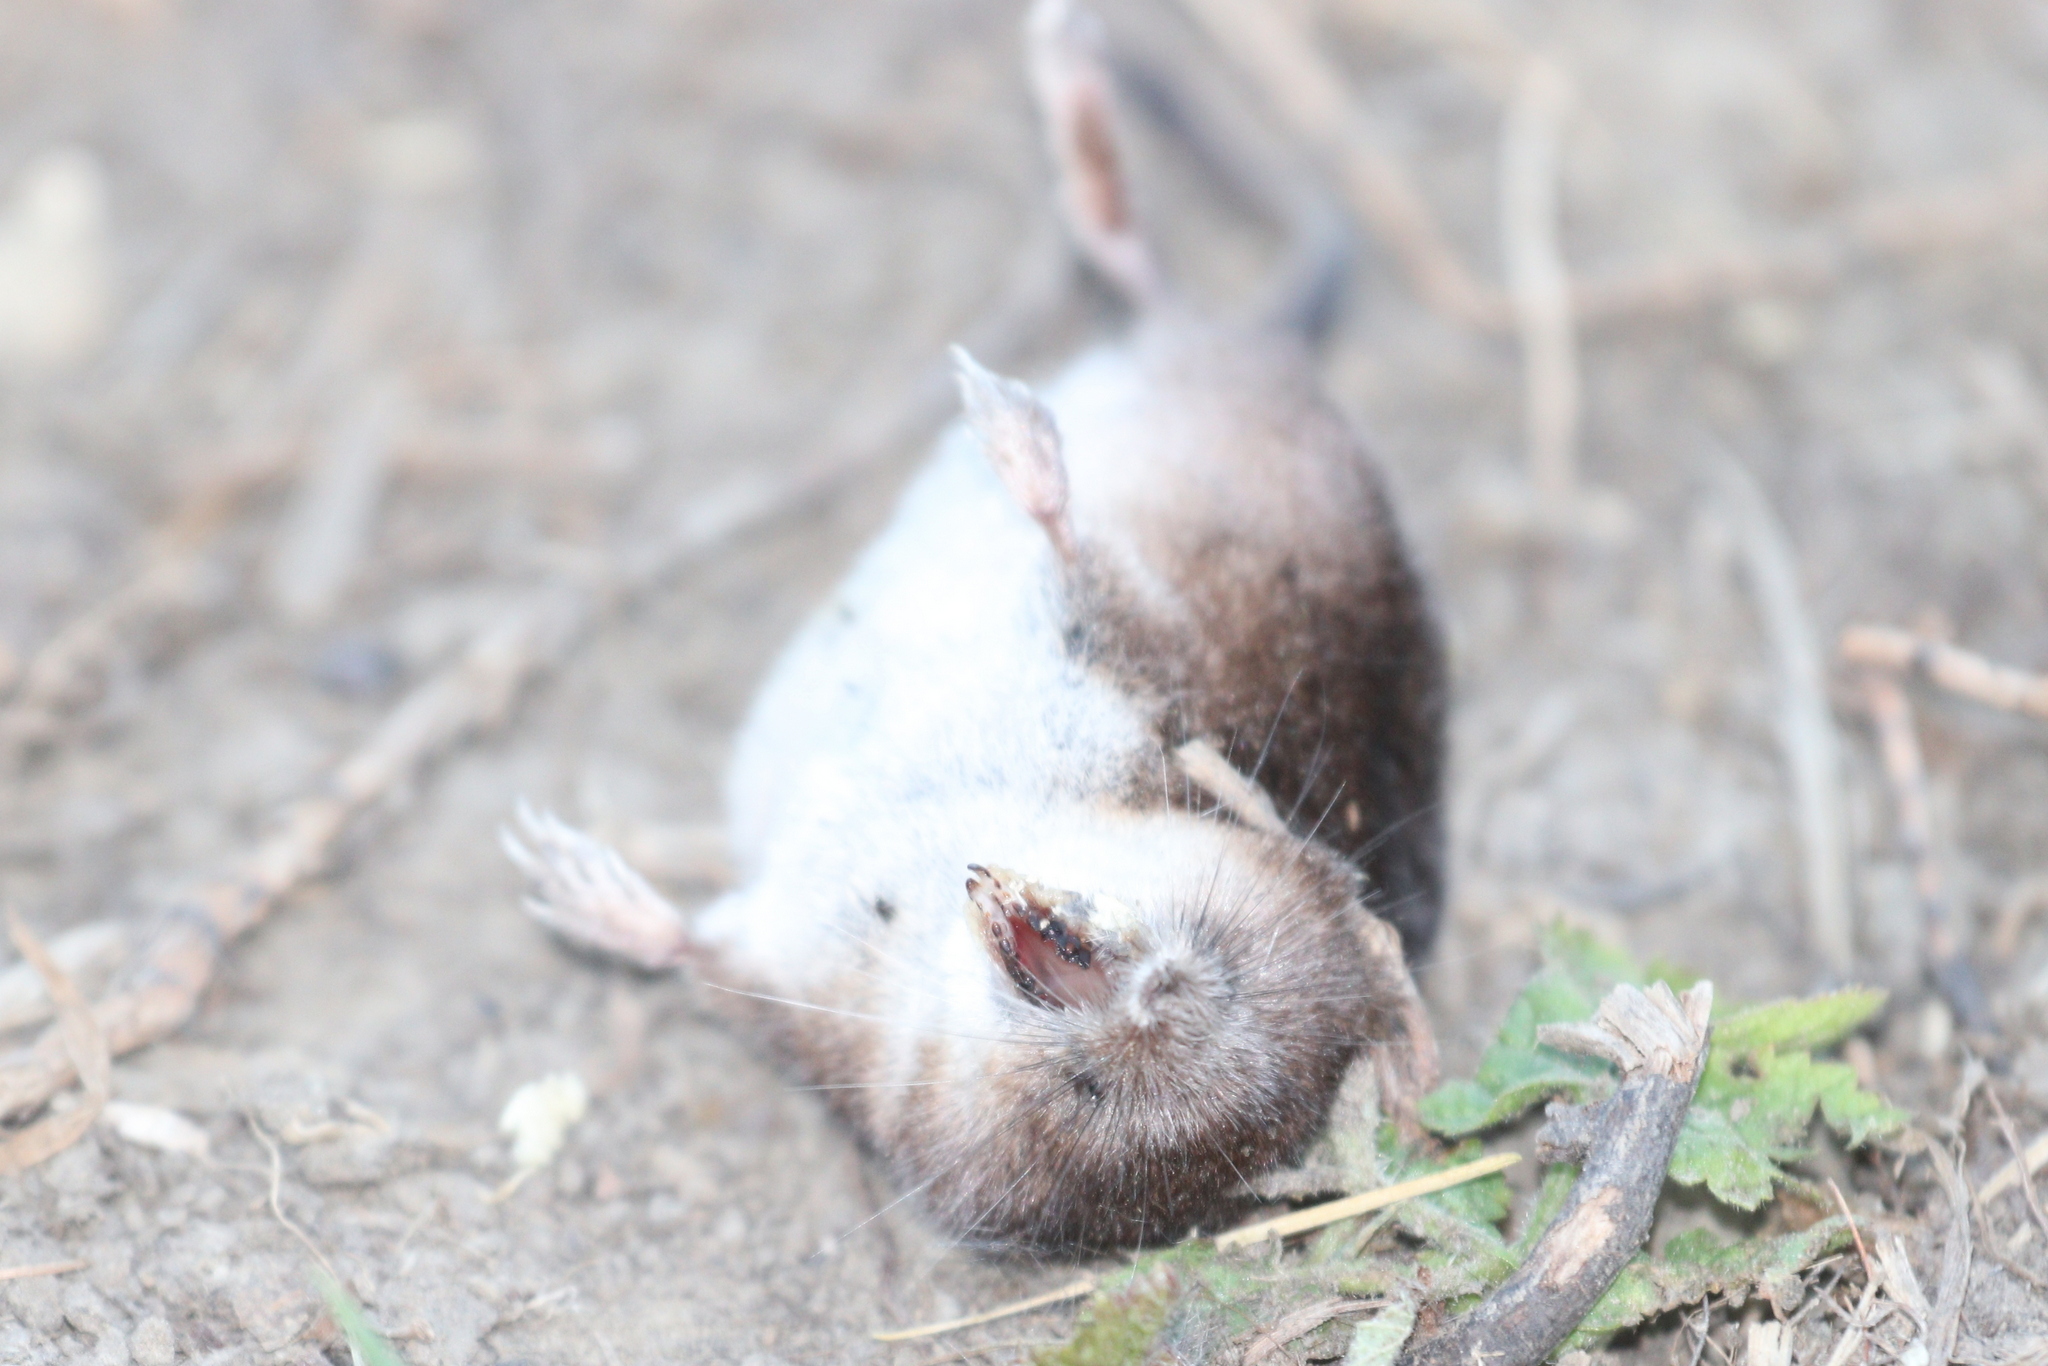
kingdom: Animalia
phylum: Chordata
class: Mammalia
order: Soricomorpha
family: Soricidae
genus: Sorex
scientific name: Sorex araneus
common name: Common shrew
